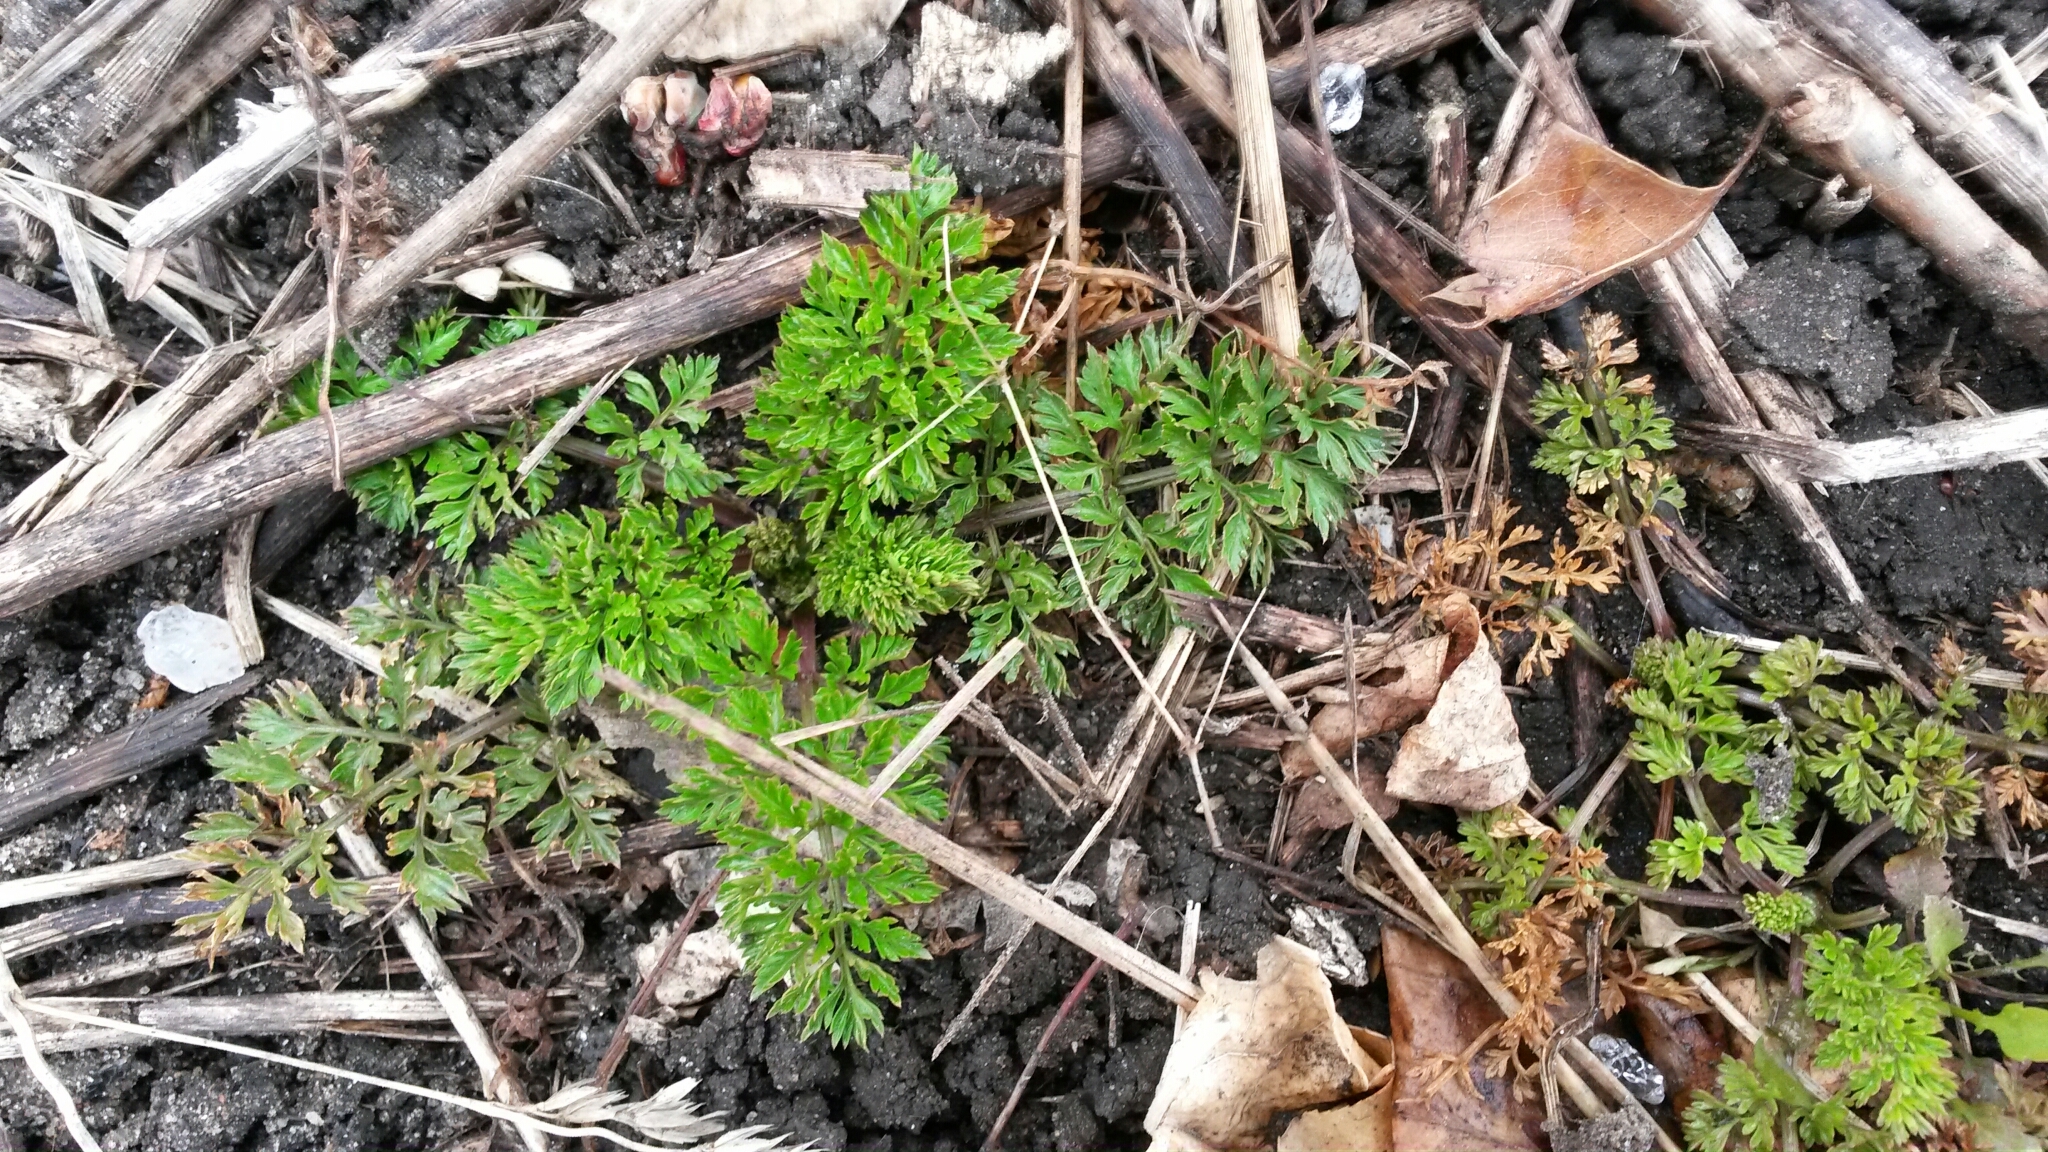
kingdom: Plantae
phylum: Tracheophyta
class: Magnoliopsida
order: Apiales
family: Apiaceae
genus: Daucus
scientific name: Daucus carota
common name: Wild carrot
